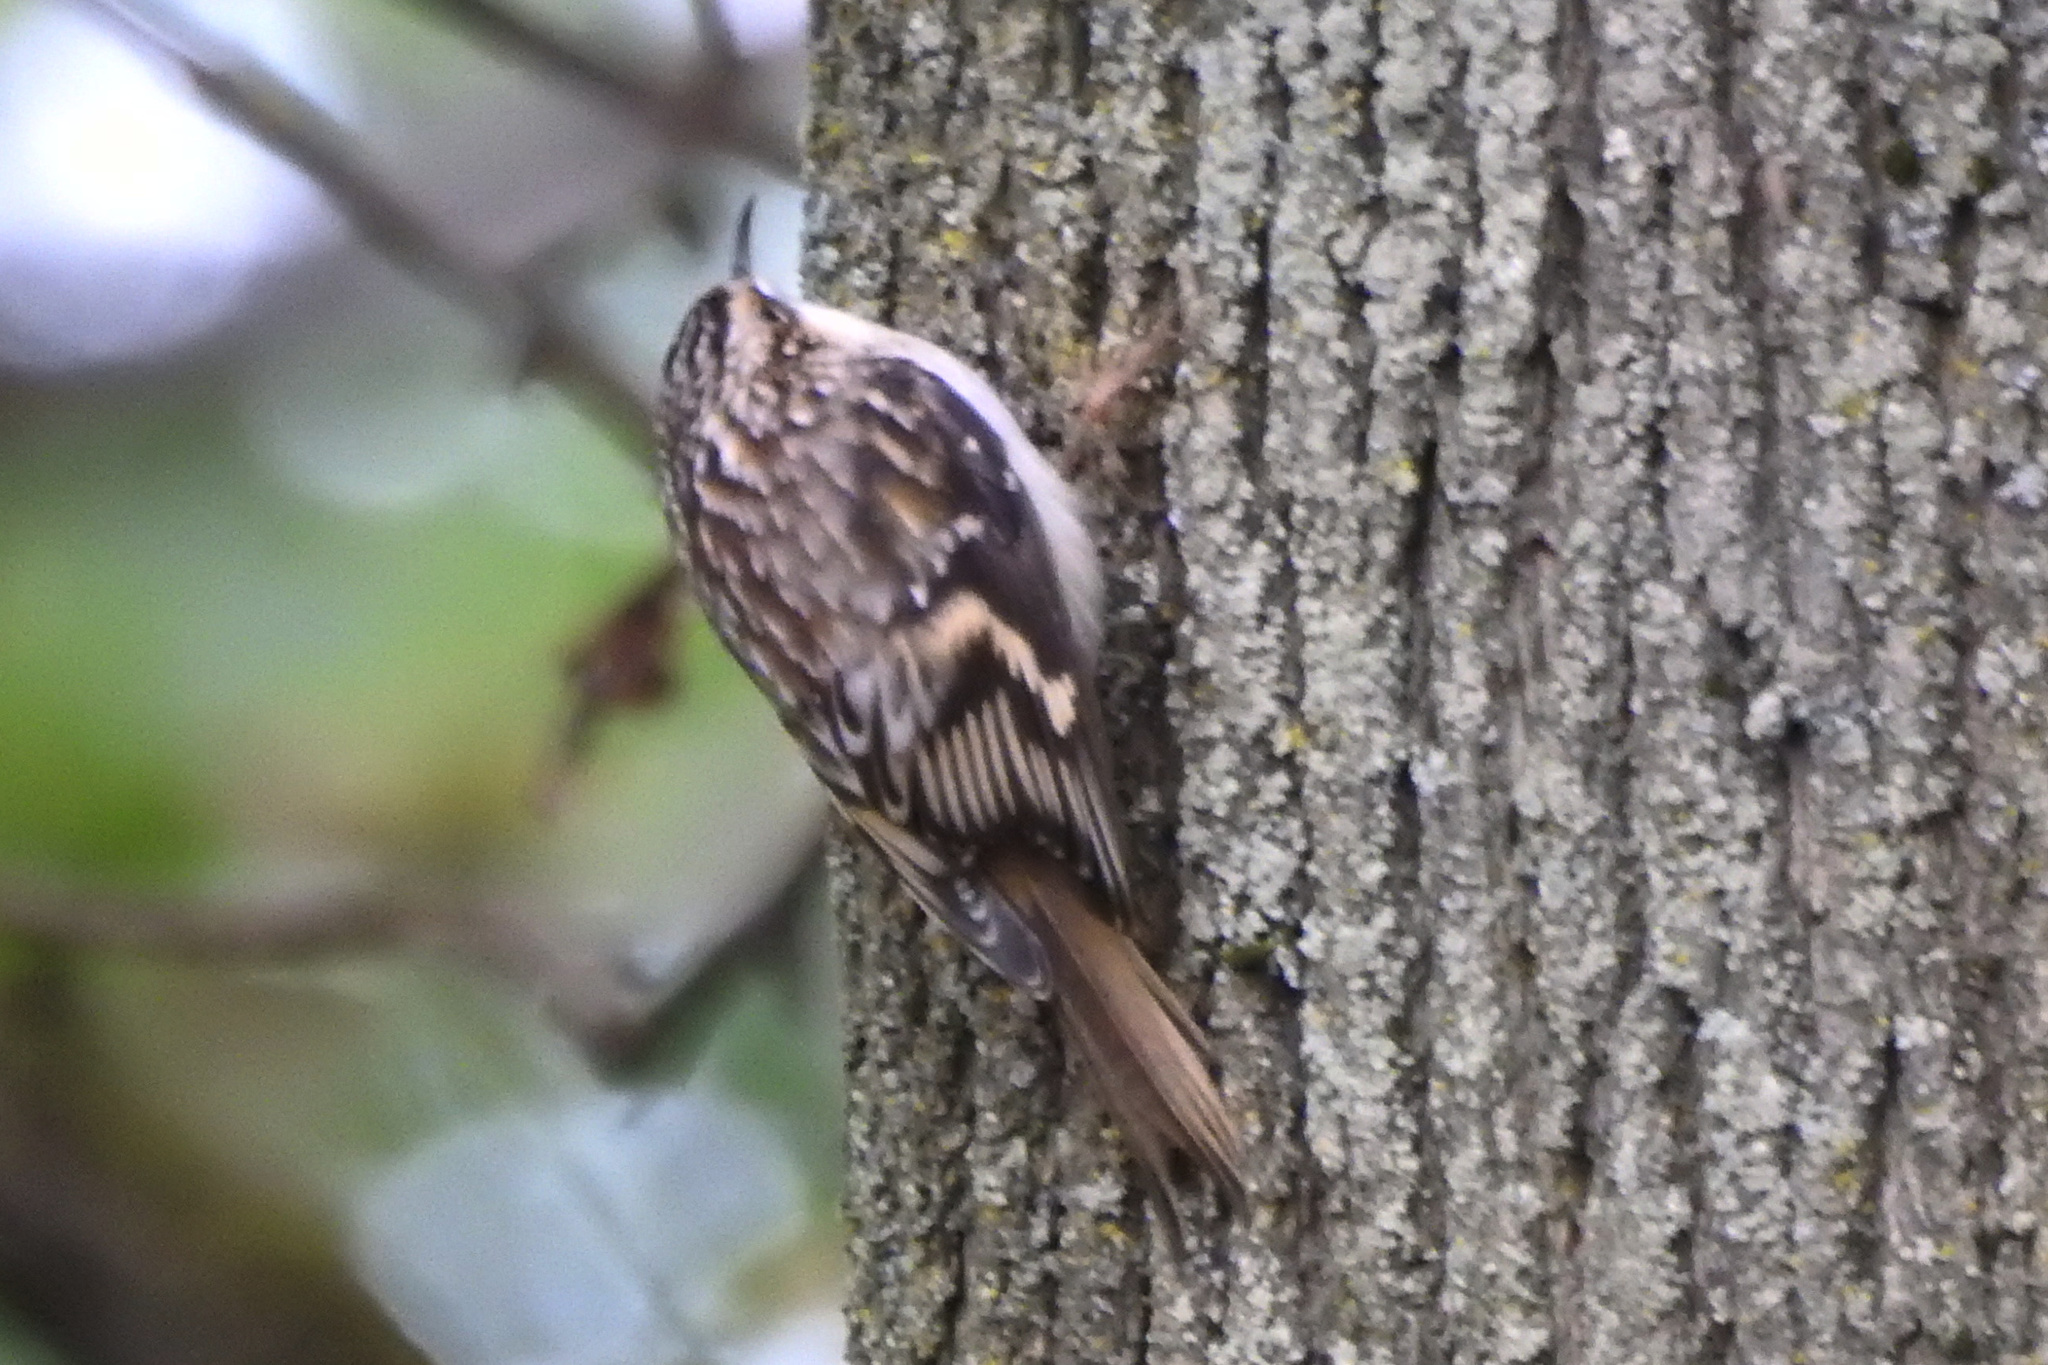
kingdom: Animalia
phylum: Chordata
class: Aves
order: Passeriformes
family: Certhiidae
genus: Certhia
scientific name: Certhia americana
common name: Brown creeper
